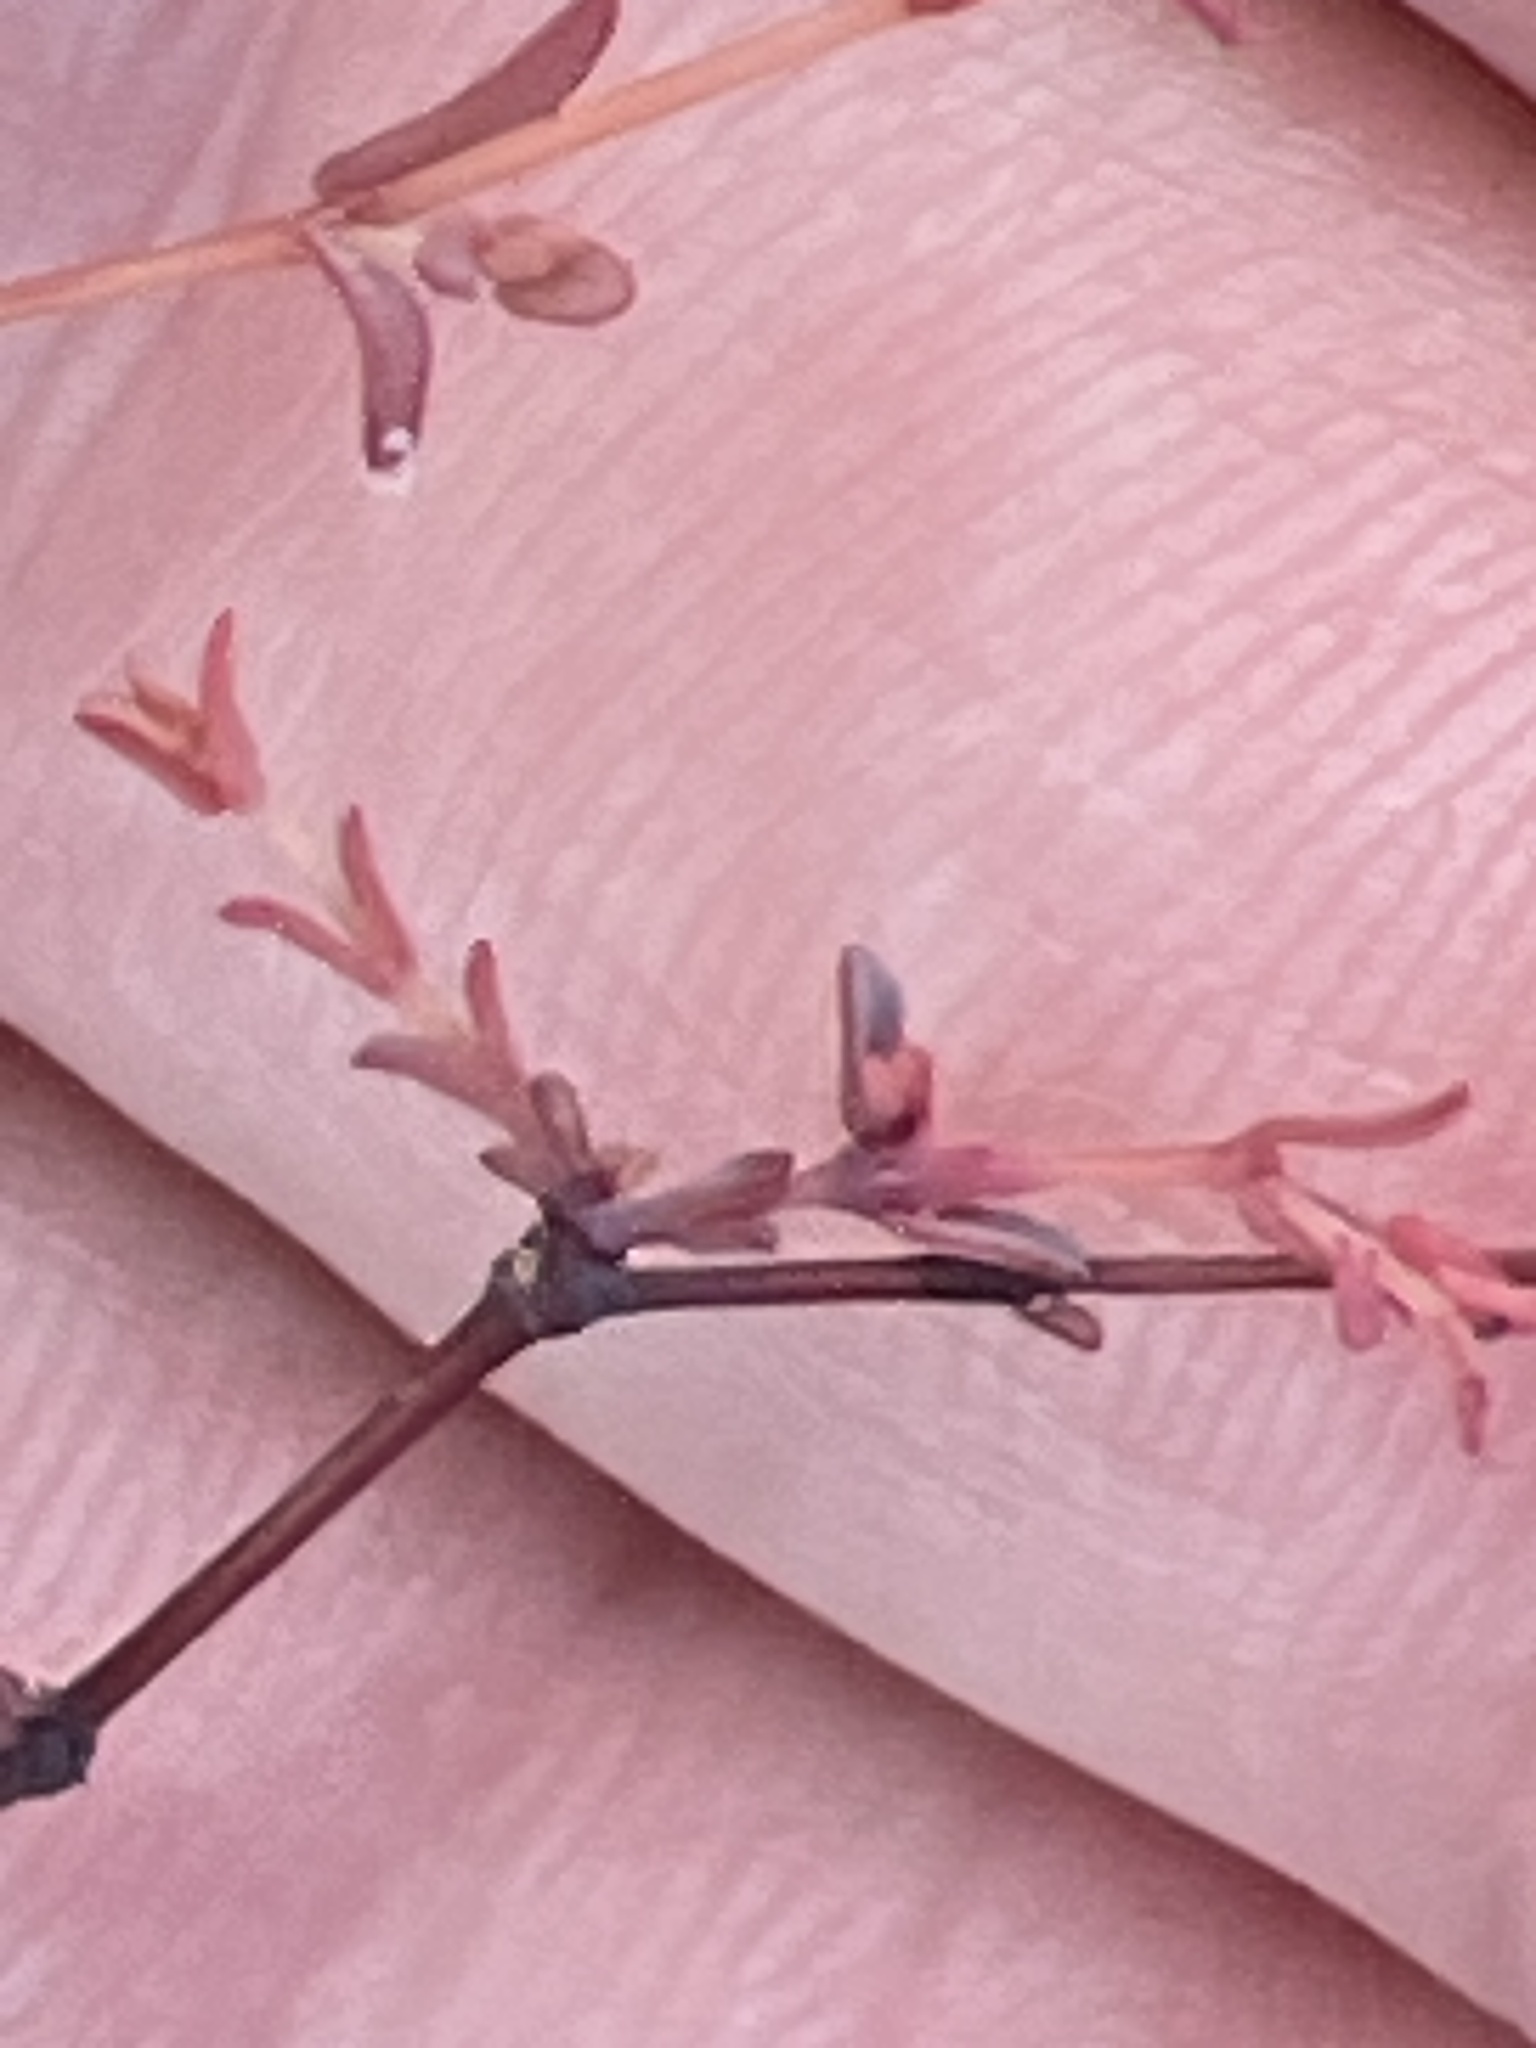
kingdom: Plantae
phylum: Tracheophyta
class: Magnoliopsida
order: Malpighiales
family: Euphorbiaceae
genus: Euphorbia
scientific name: Euphorbia abdita
